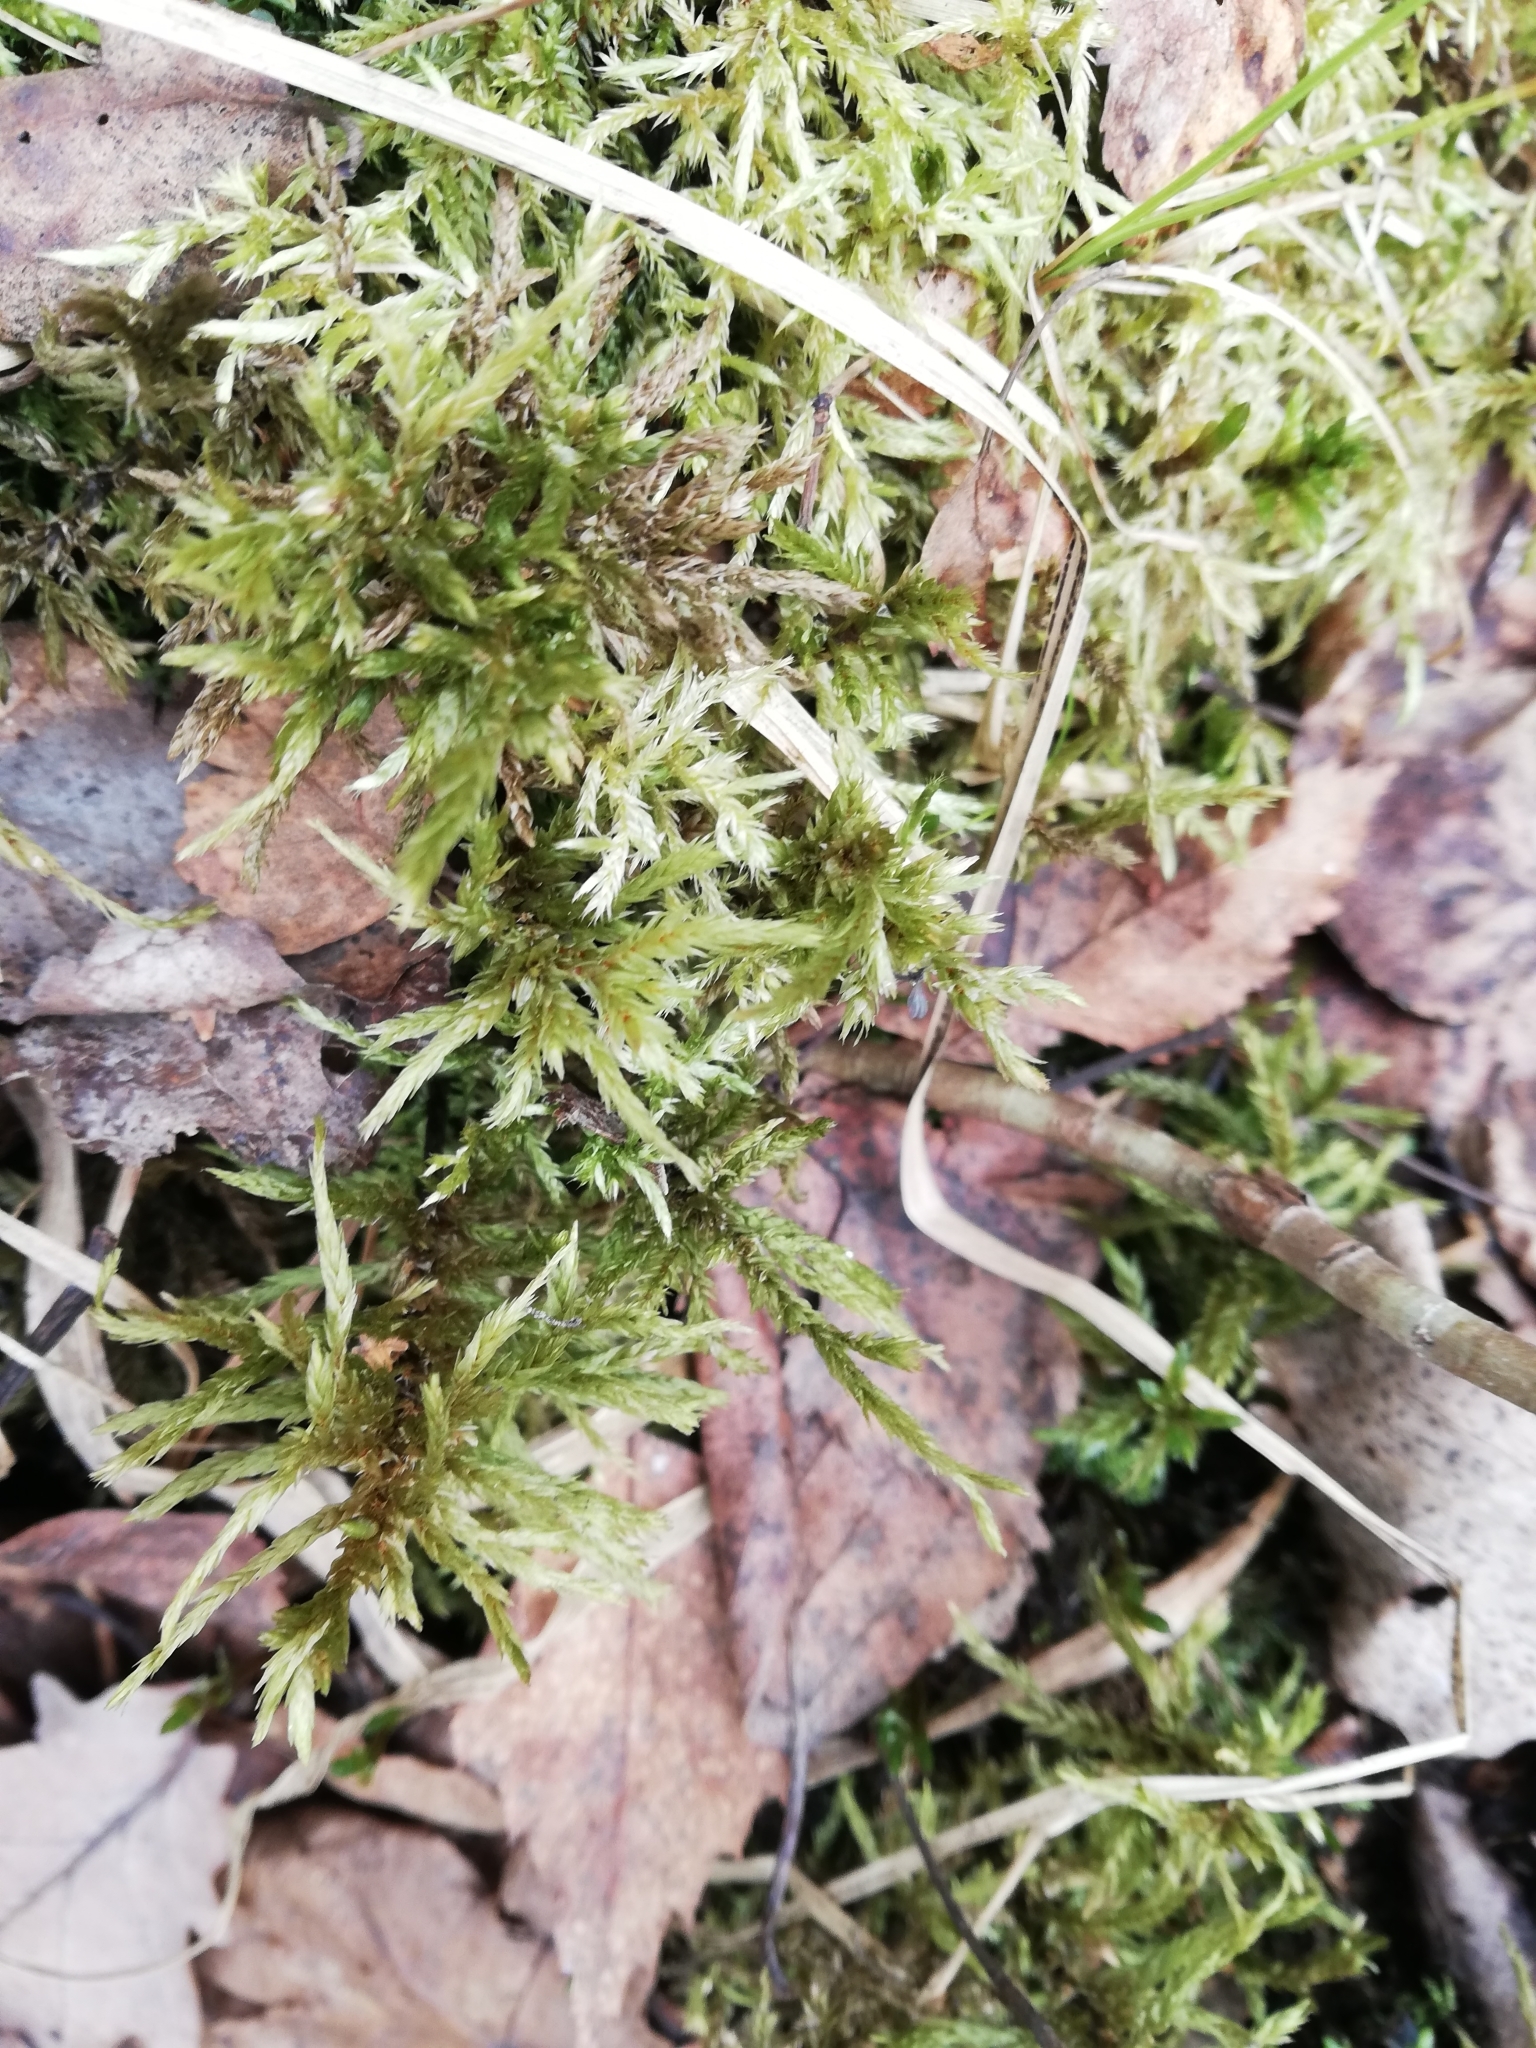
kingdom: Plantae
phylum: Bryophyta
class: Bryopsida
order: Hypnales
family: Climaciaceae
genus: Climacium
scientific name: Climacium dendroides
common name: Northern tree moss
